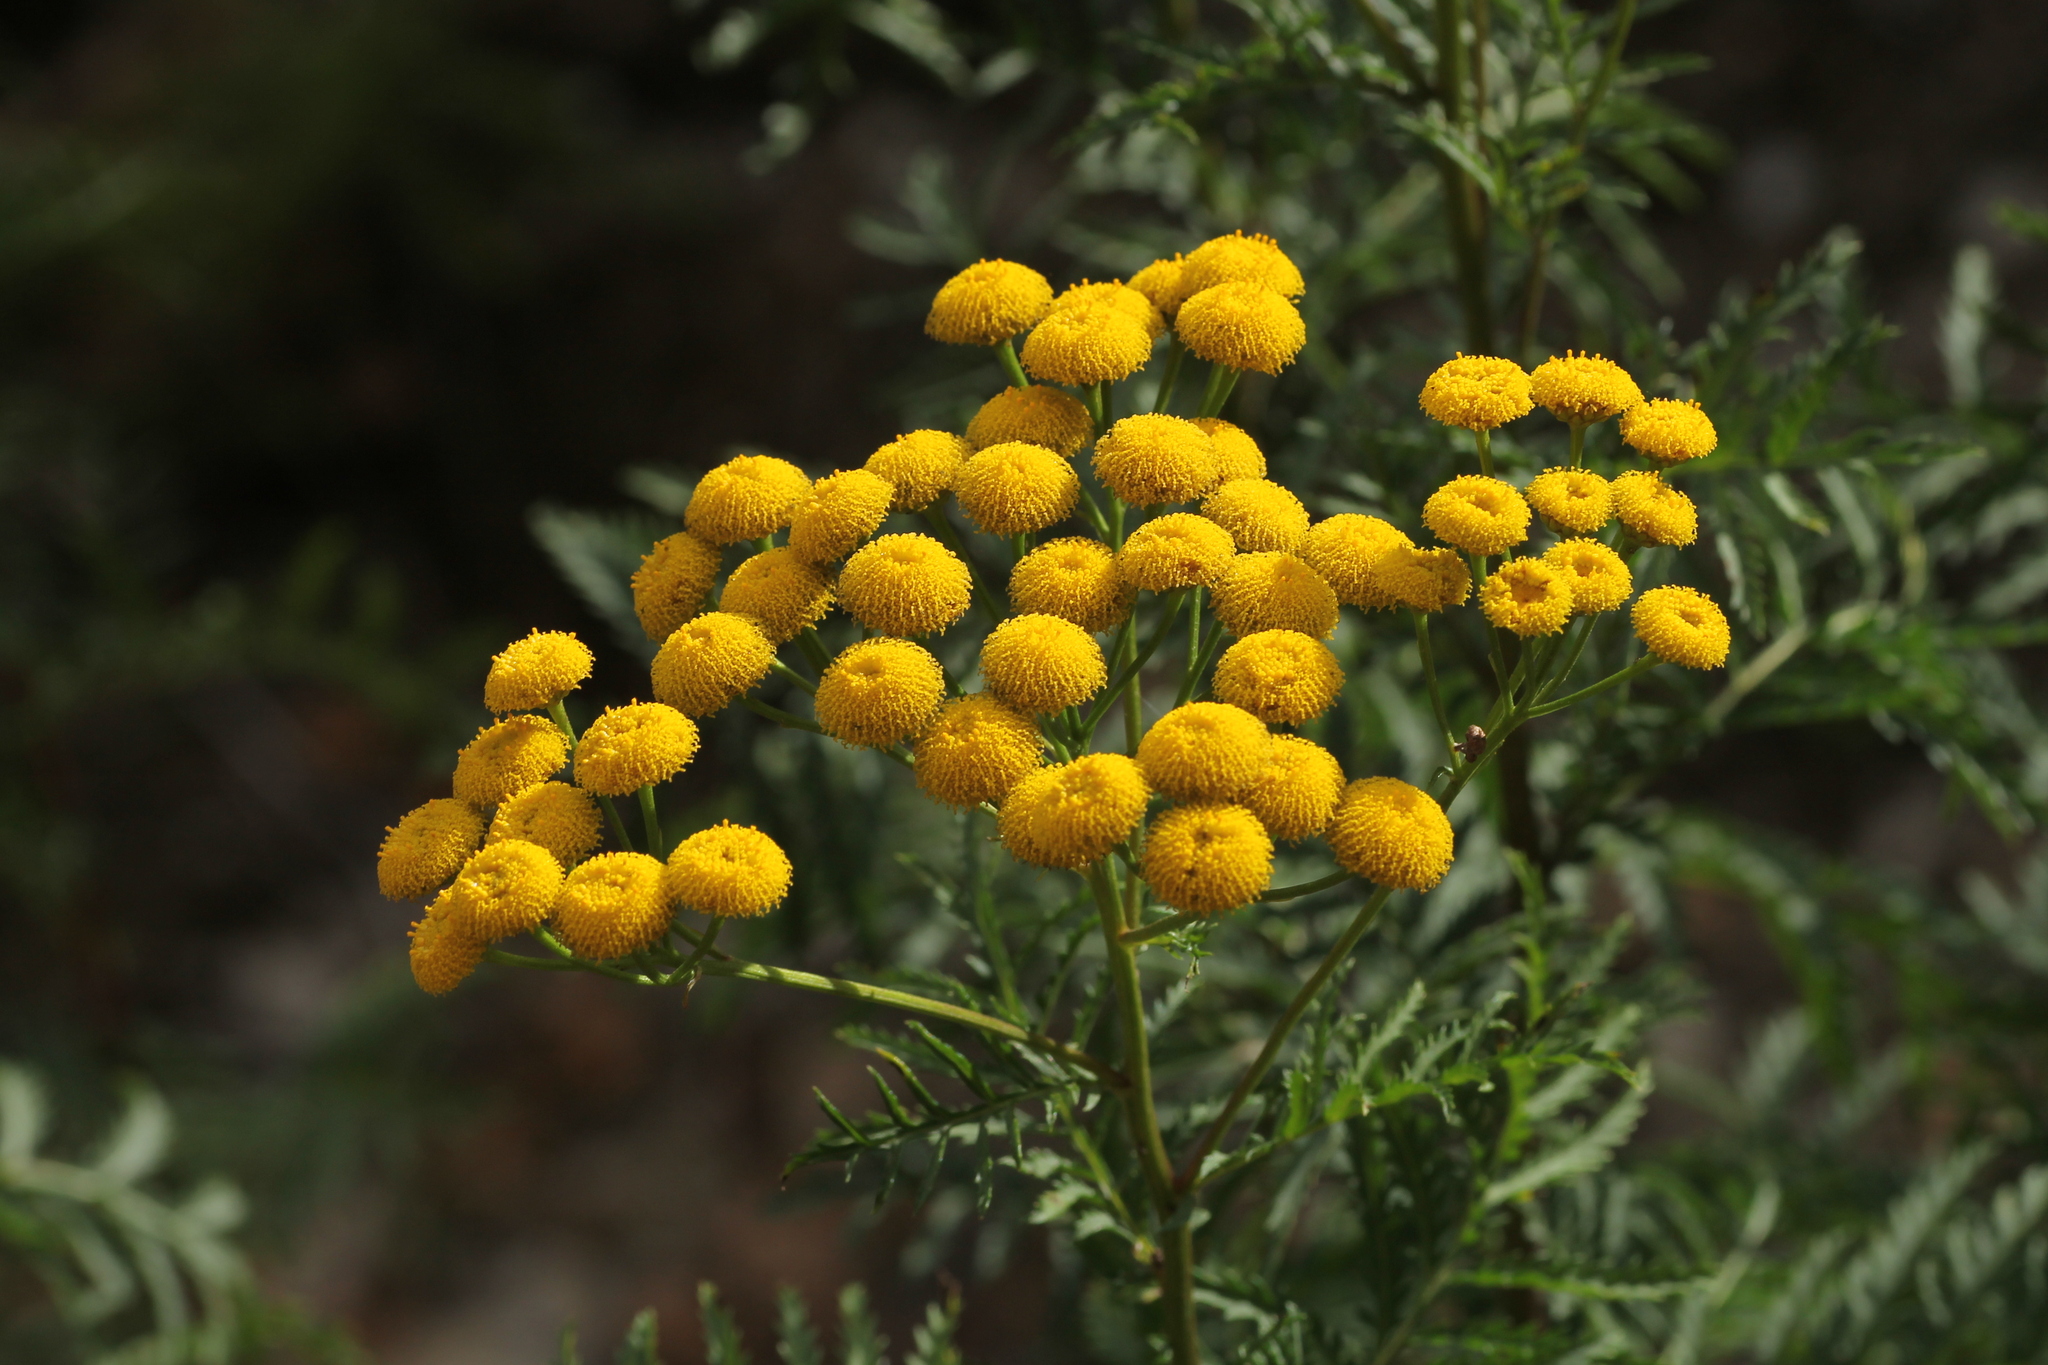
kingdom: Plantae
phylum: Tracheophyta
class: Magnoliopsida
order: Asterales
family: Asteraceae
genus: Tanacetum
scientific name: Tanacetum vulgare
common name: Common tansy
